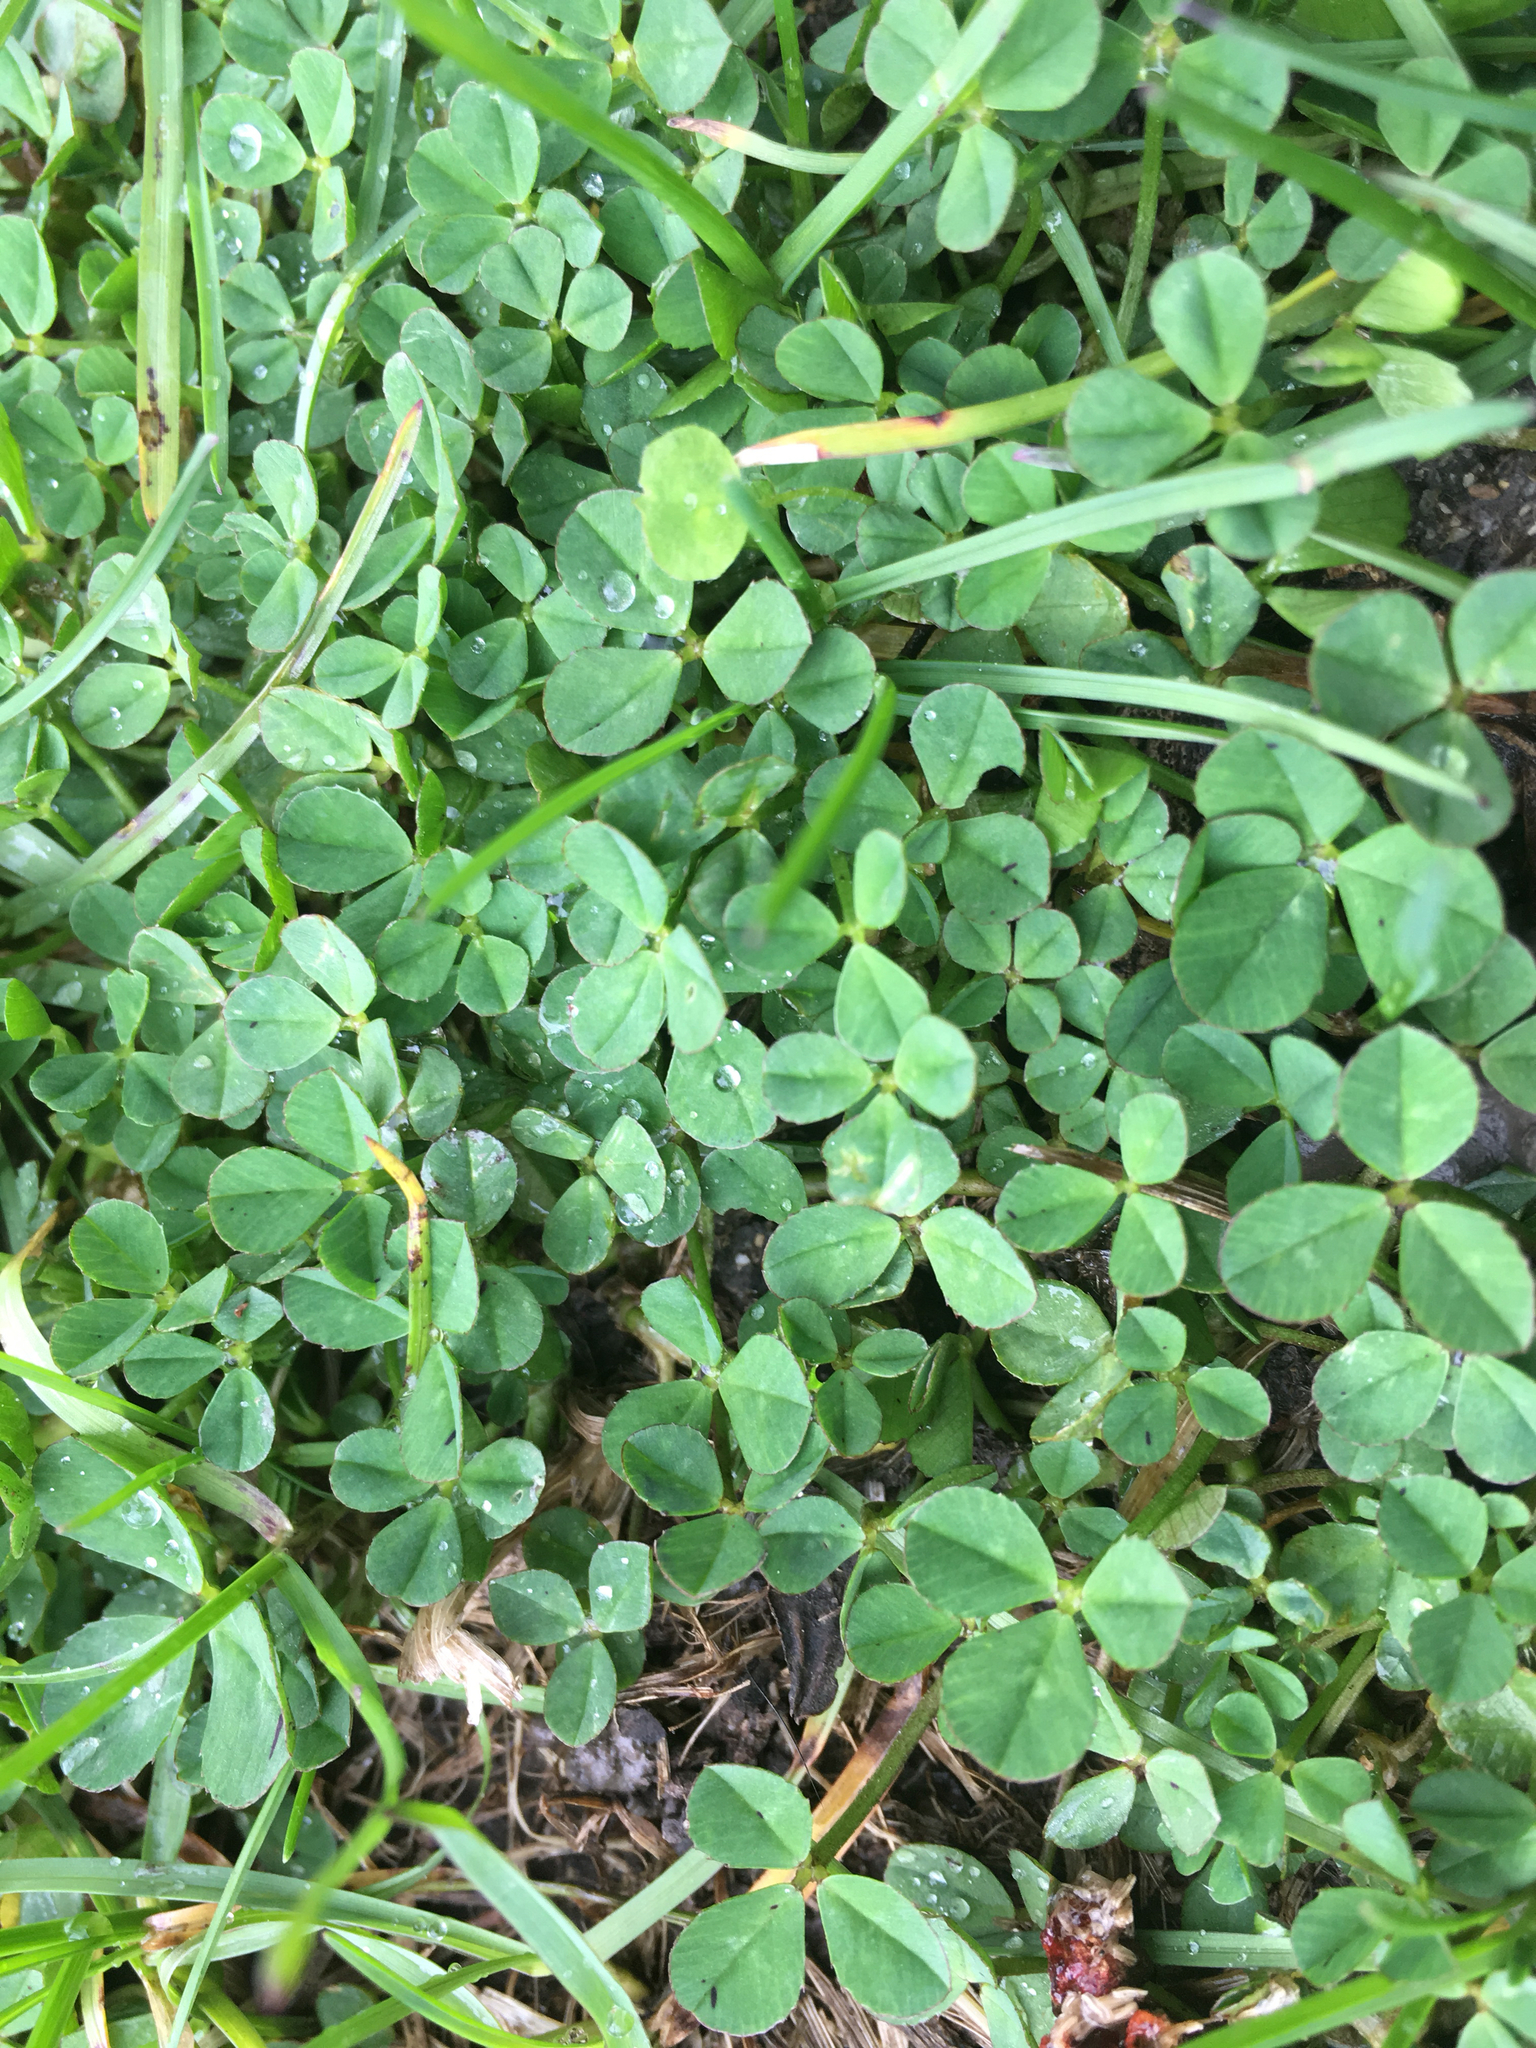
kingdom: Plantae
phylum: Tracheophyta
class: Magnoliopsida
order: Fabales
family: Fabaceae
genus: Trifolium
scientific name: Trifolium repens
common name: White clover
